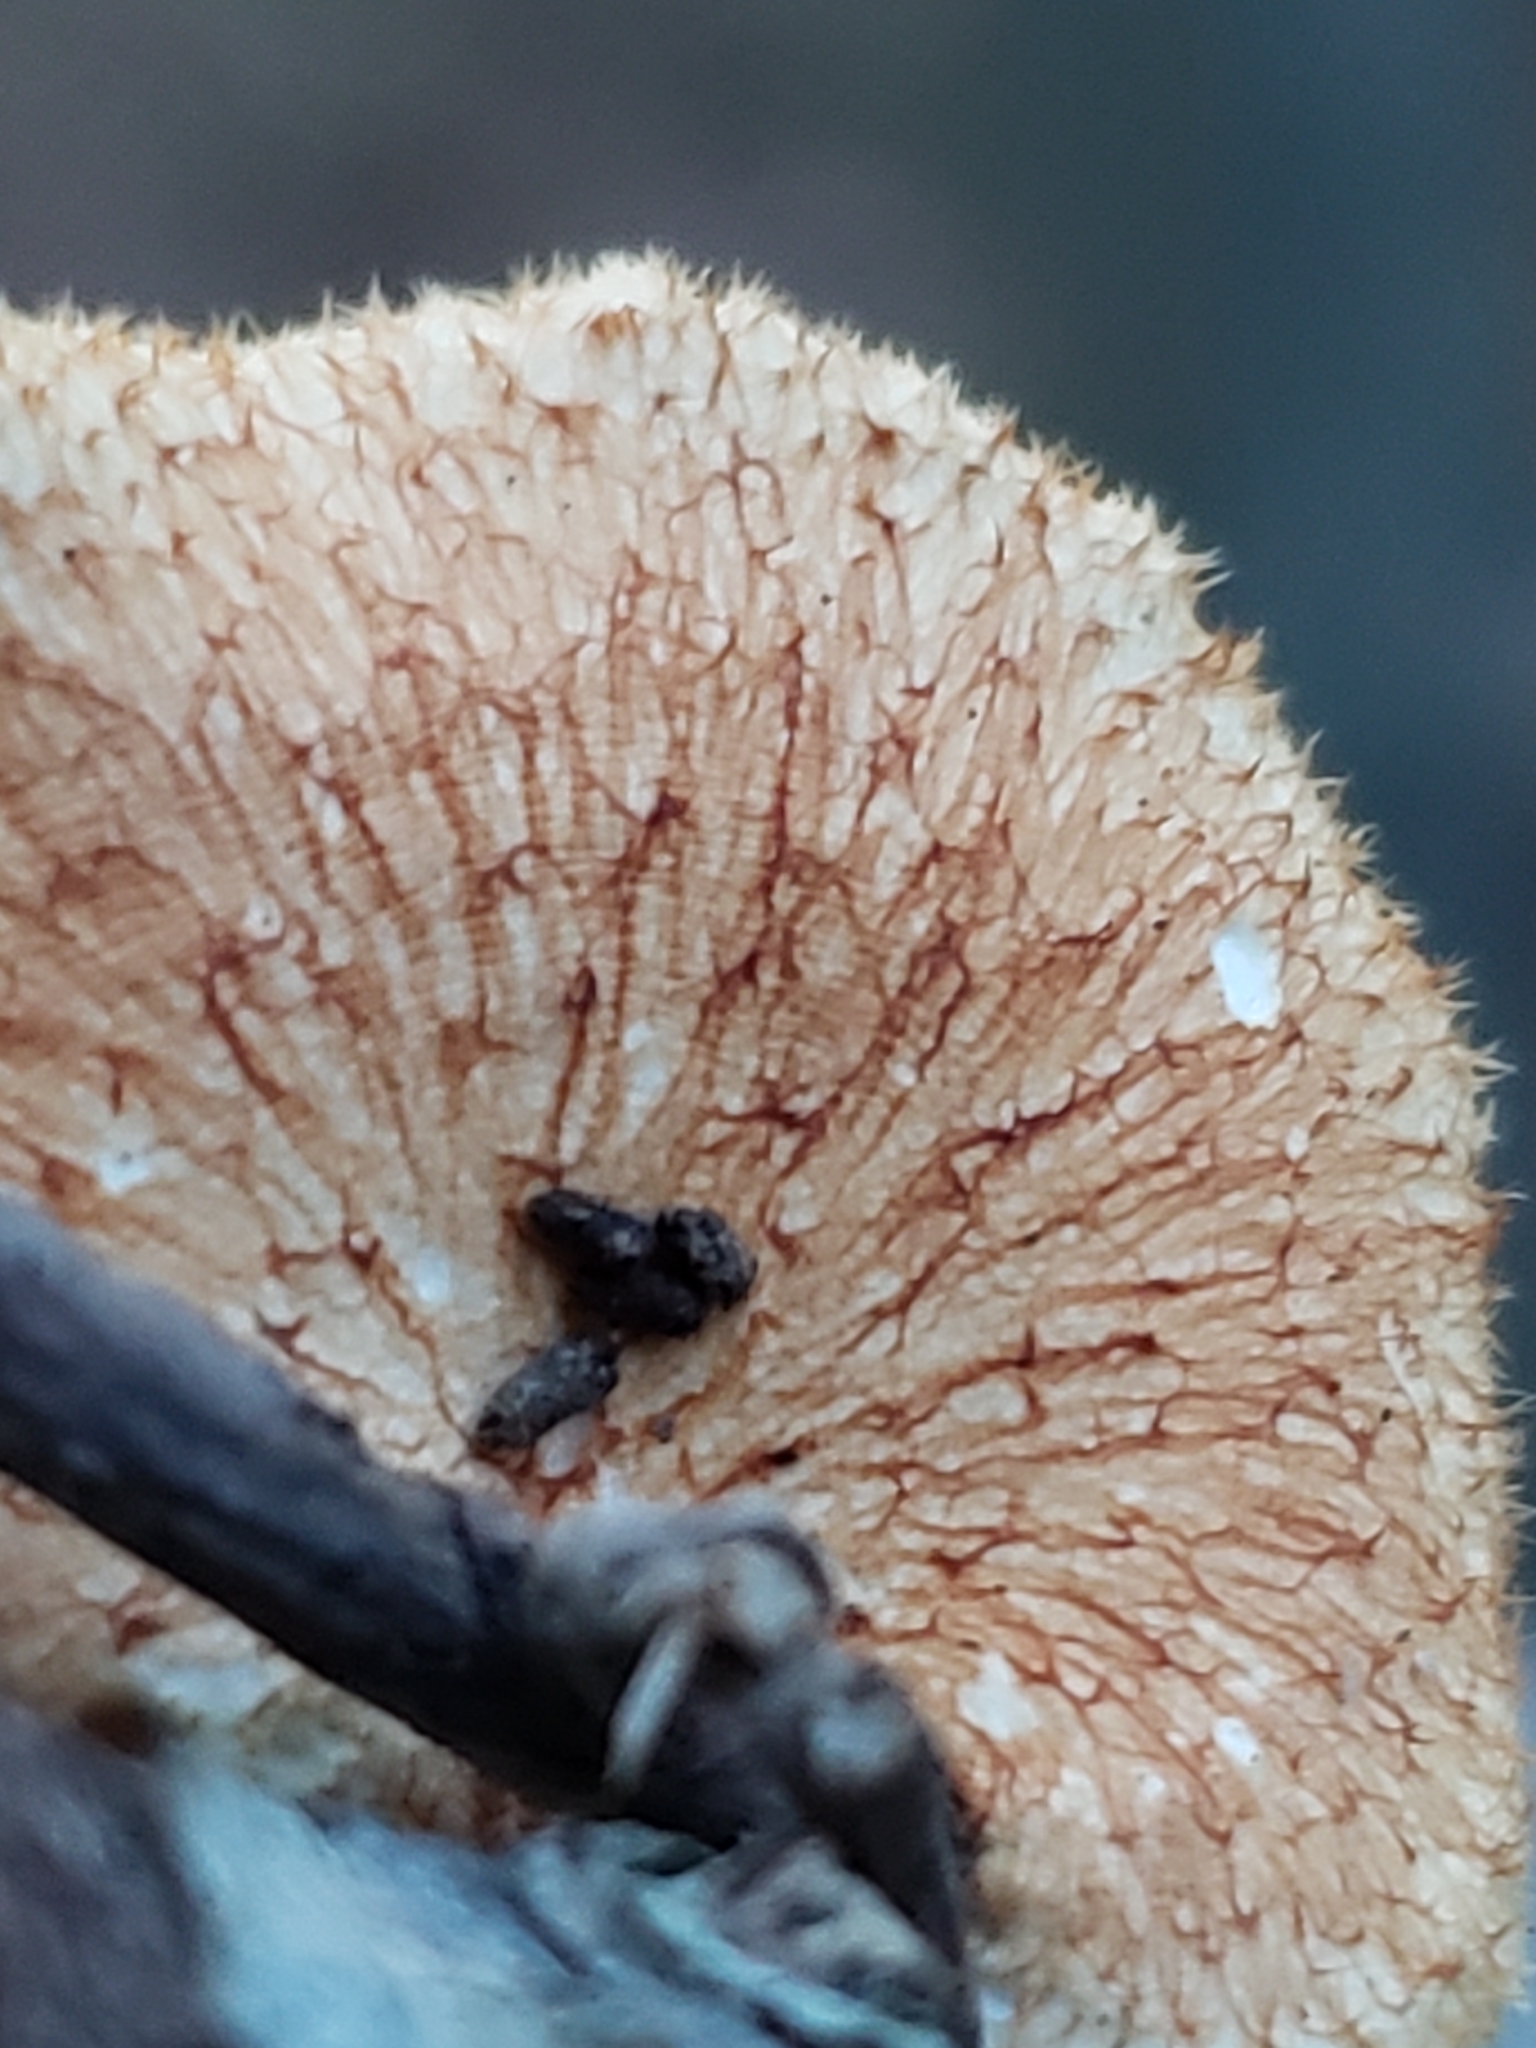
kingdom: Fungi
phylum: Basidiomycota
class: Agaricomycetes
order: Polyporales
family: Polyporaceae
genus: Neofavolus
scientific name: Neofavolus alveolaris
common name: Hexagonal-pored polypore
